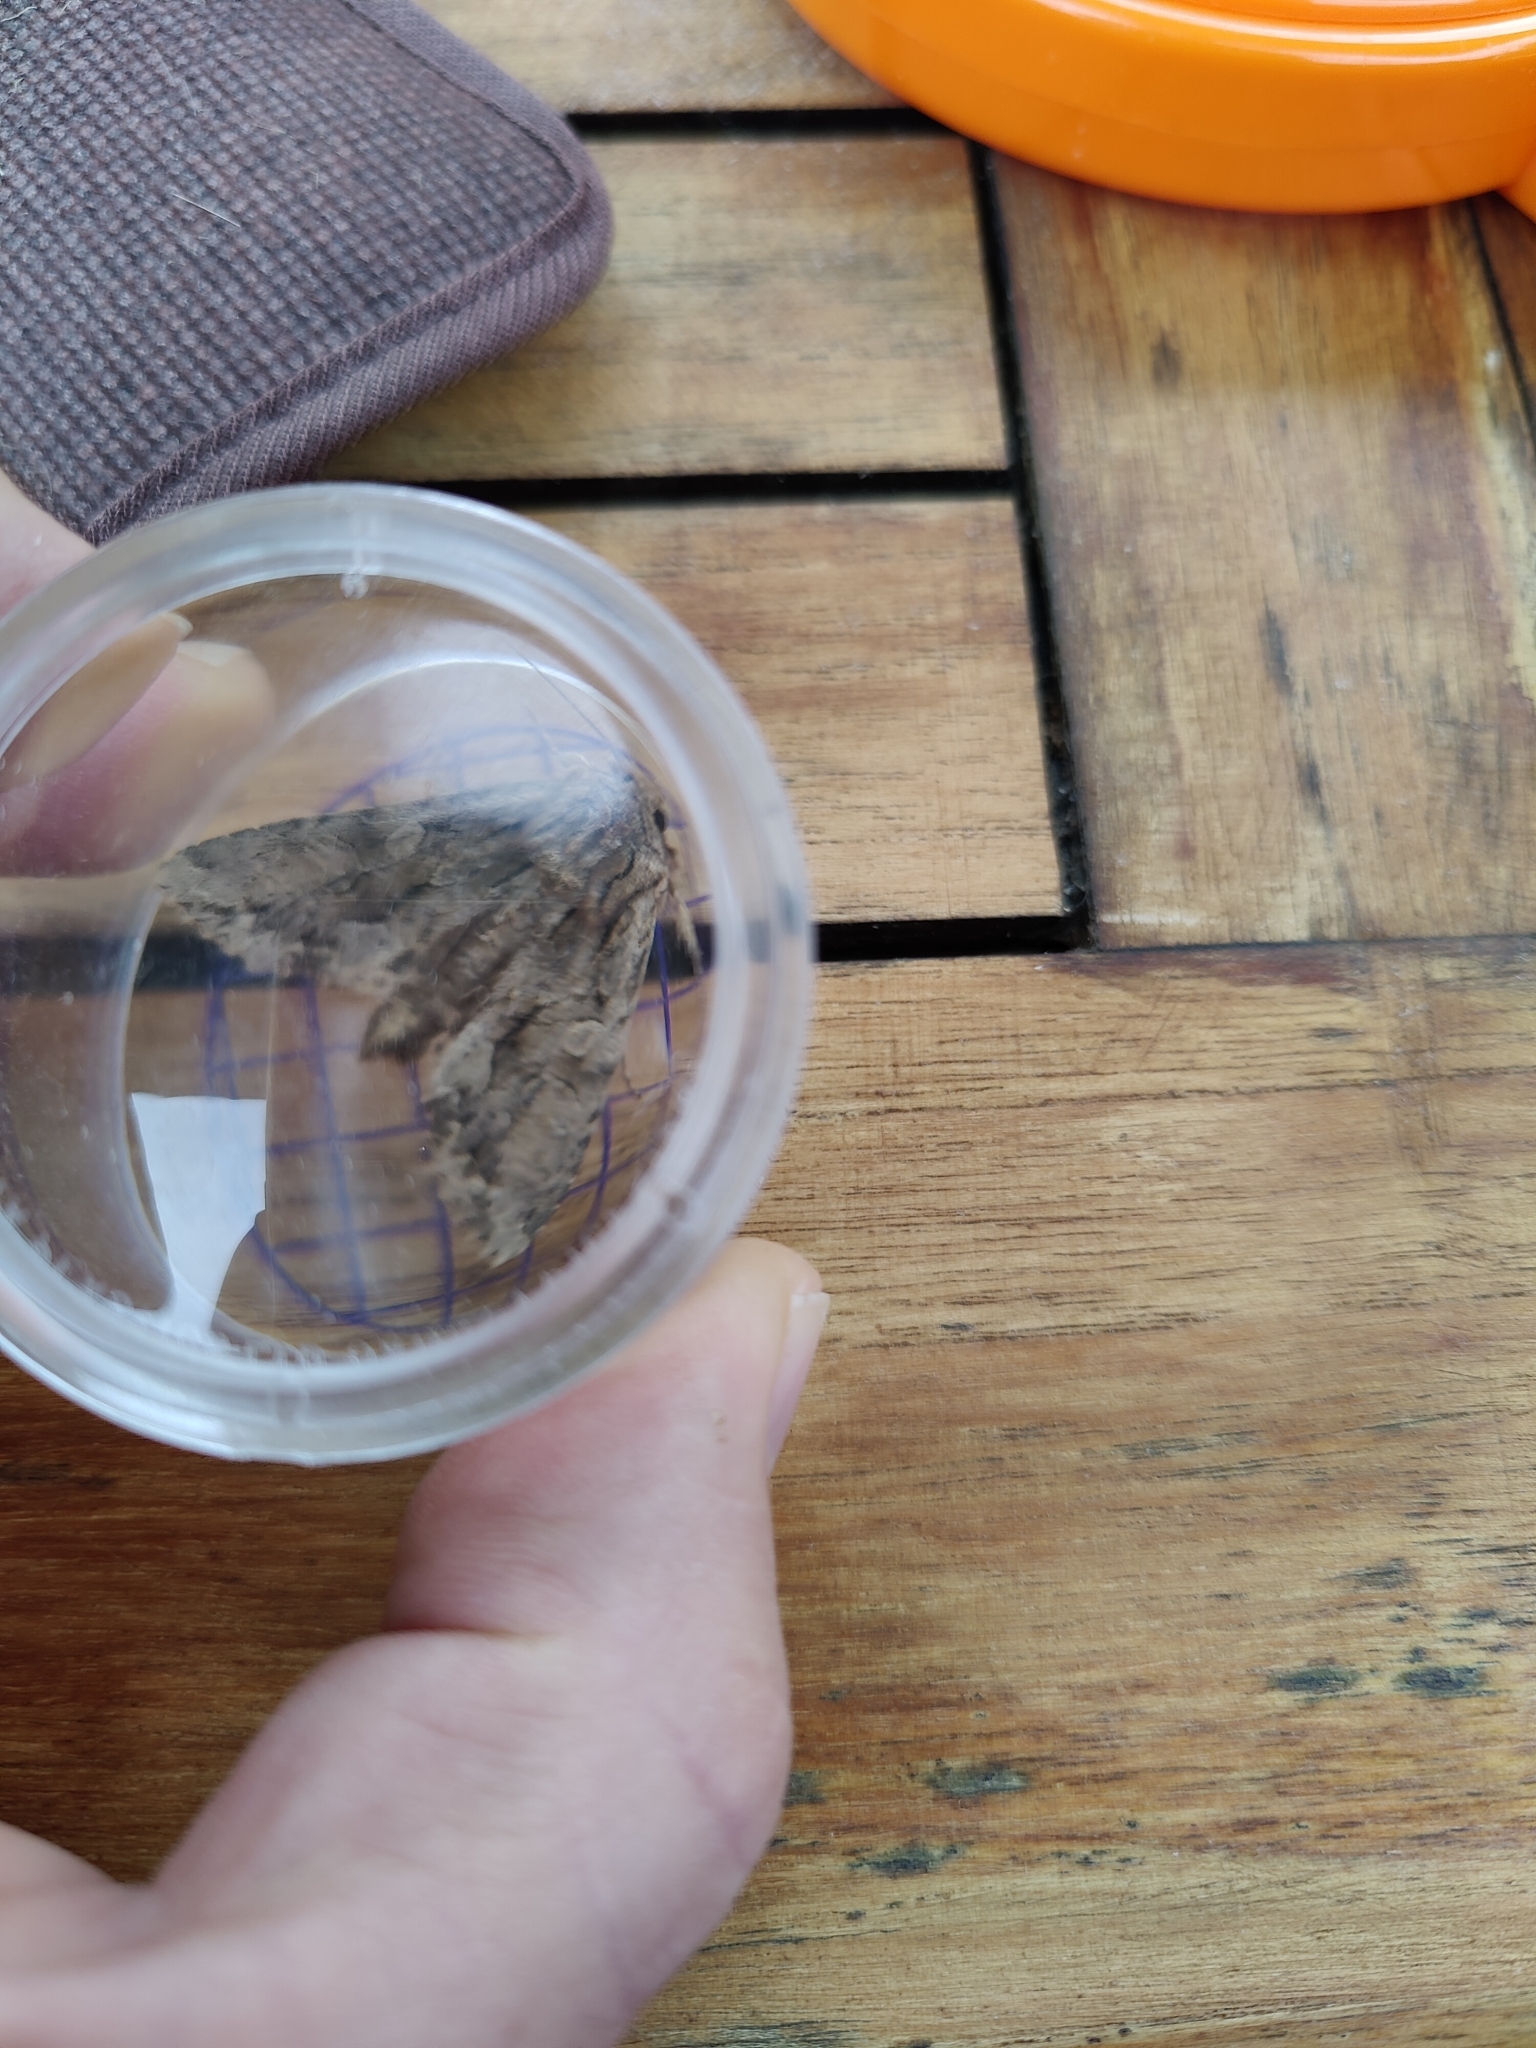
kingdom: Animalia
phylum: Arthropoda
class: Insecta
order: Lepidoptera
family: Noctuidae
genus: Apamea
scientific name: Apamea monoglypha
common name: Dark arches
